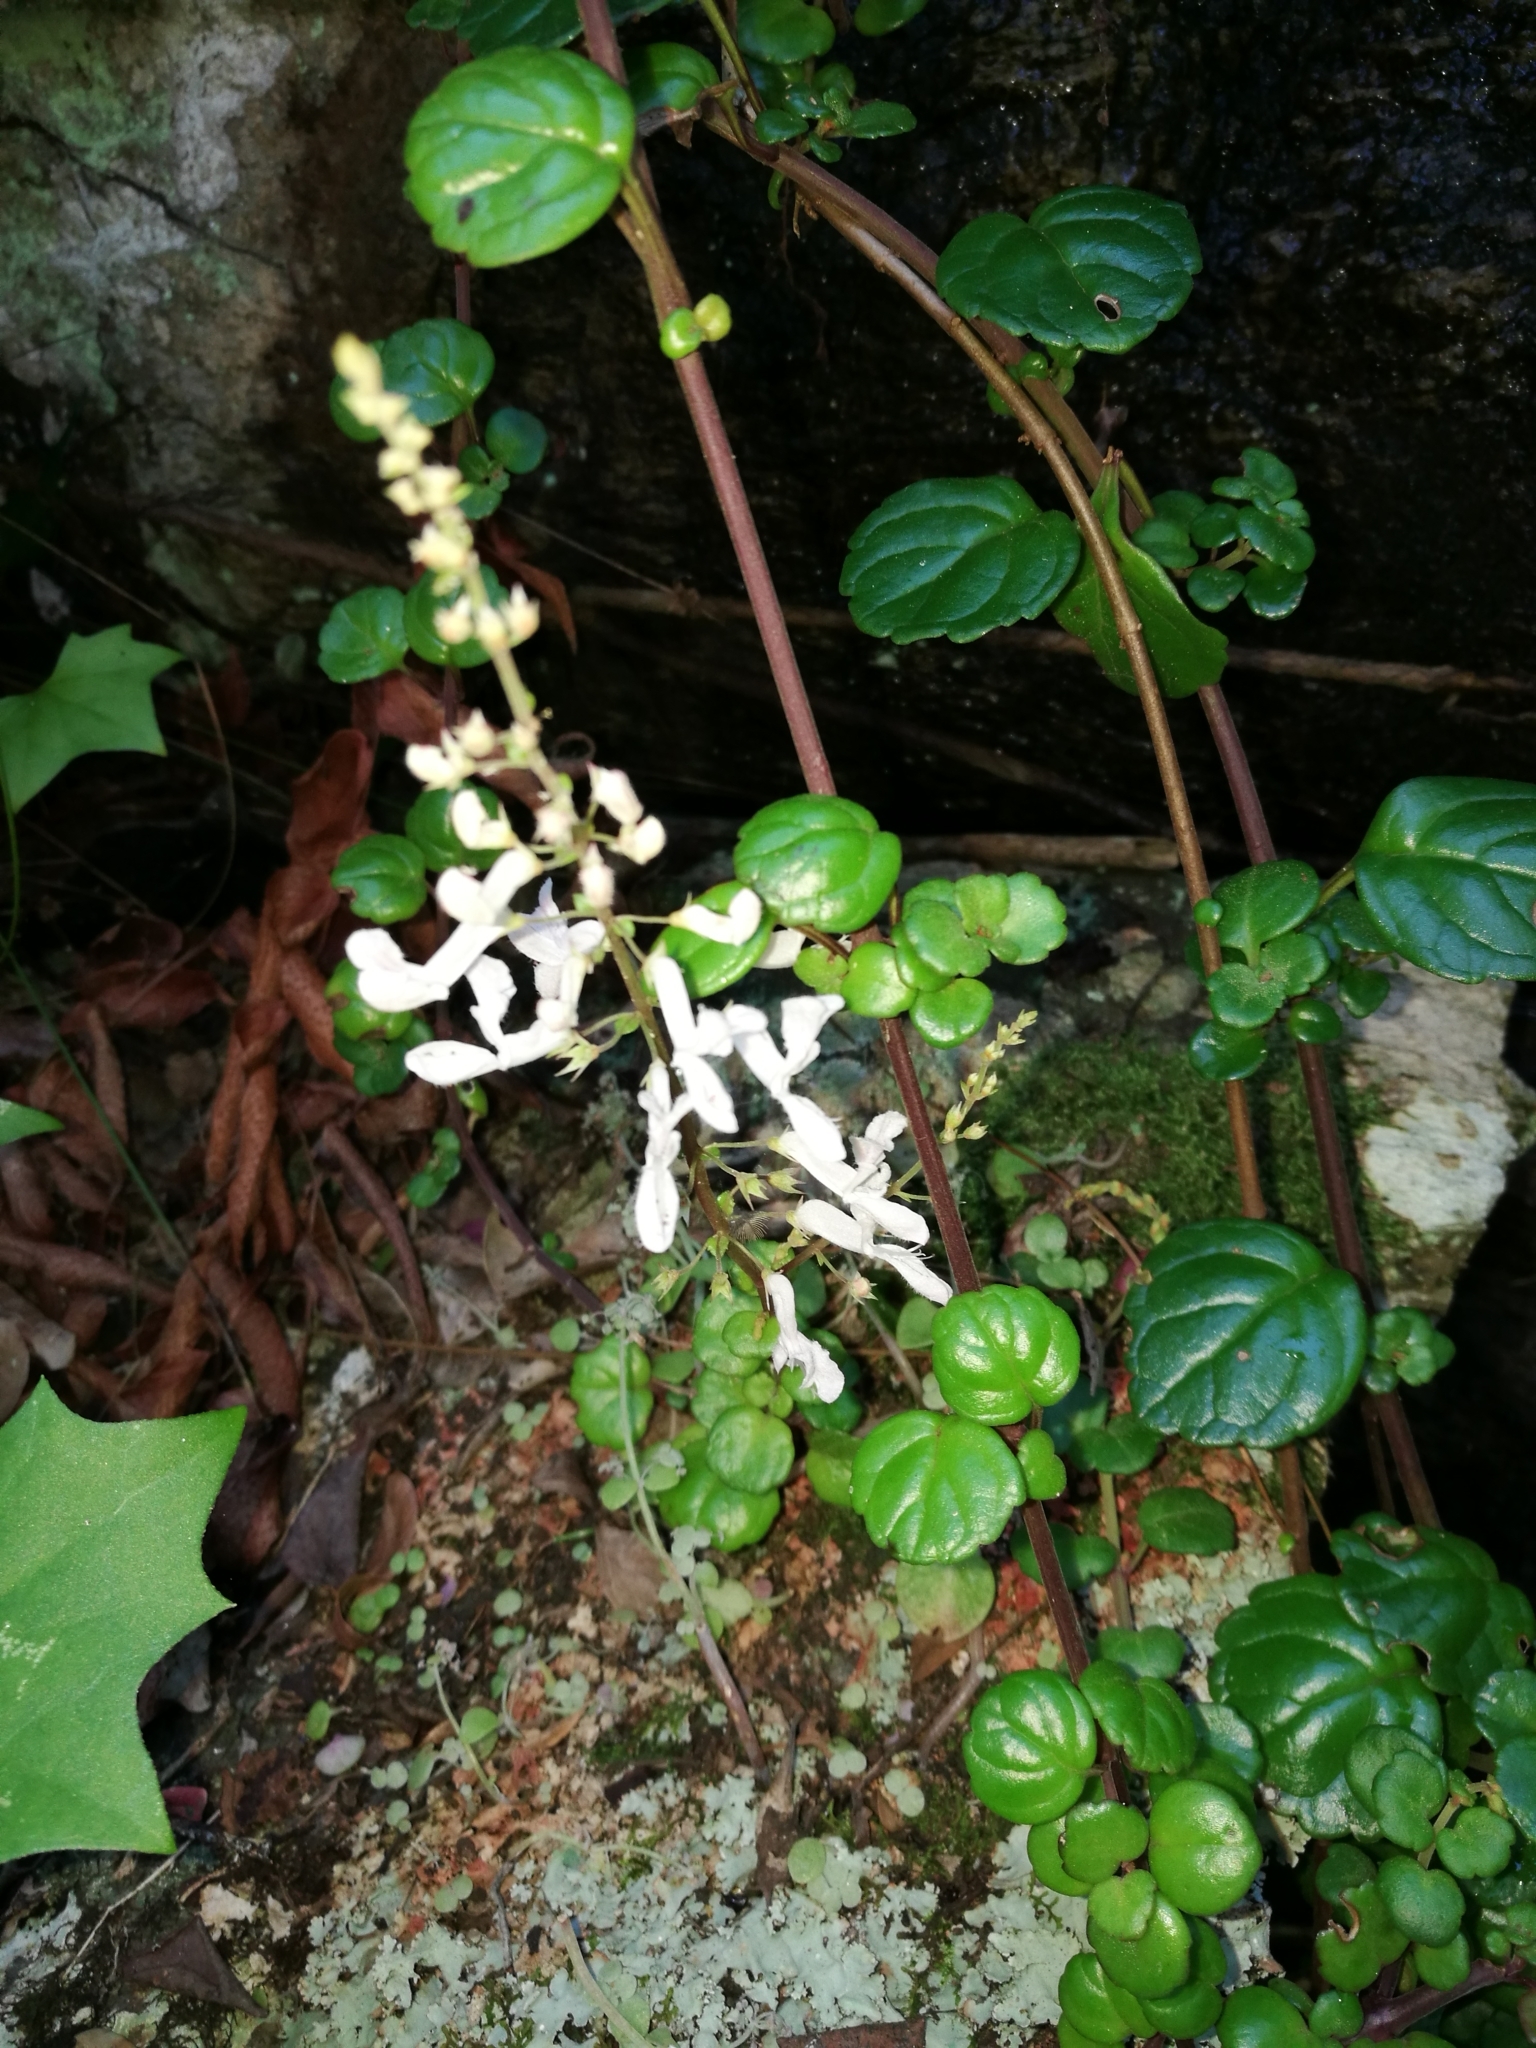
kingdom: Plantae
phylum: Tracheophyta
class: Magnoliopsida
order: Lamiales
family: Lamiaceae
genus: Plectranthus
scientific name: Plectranthus verticillatus
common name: Whorled plectranthus
